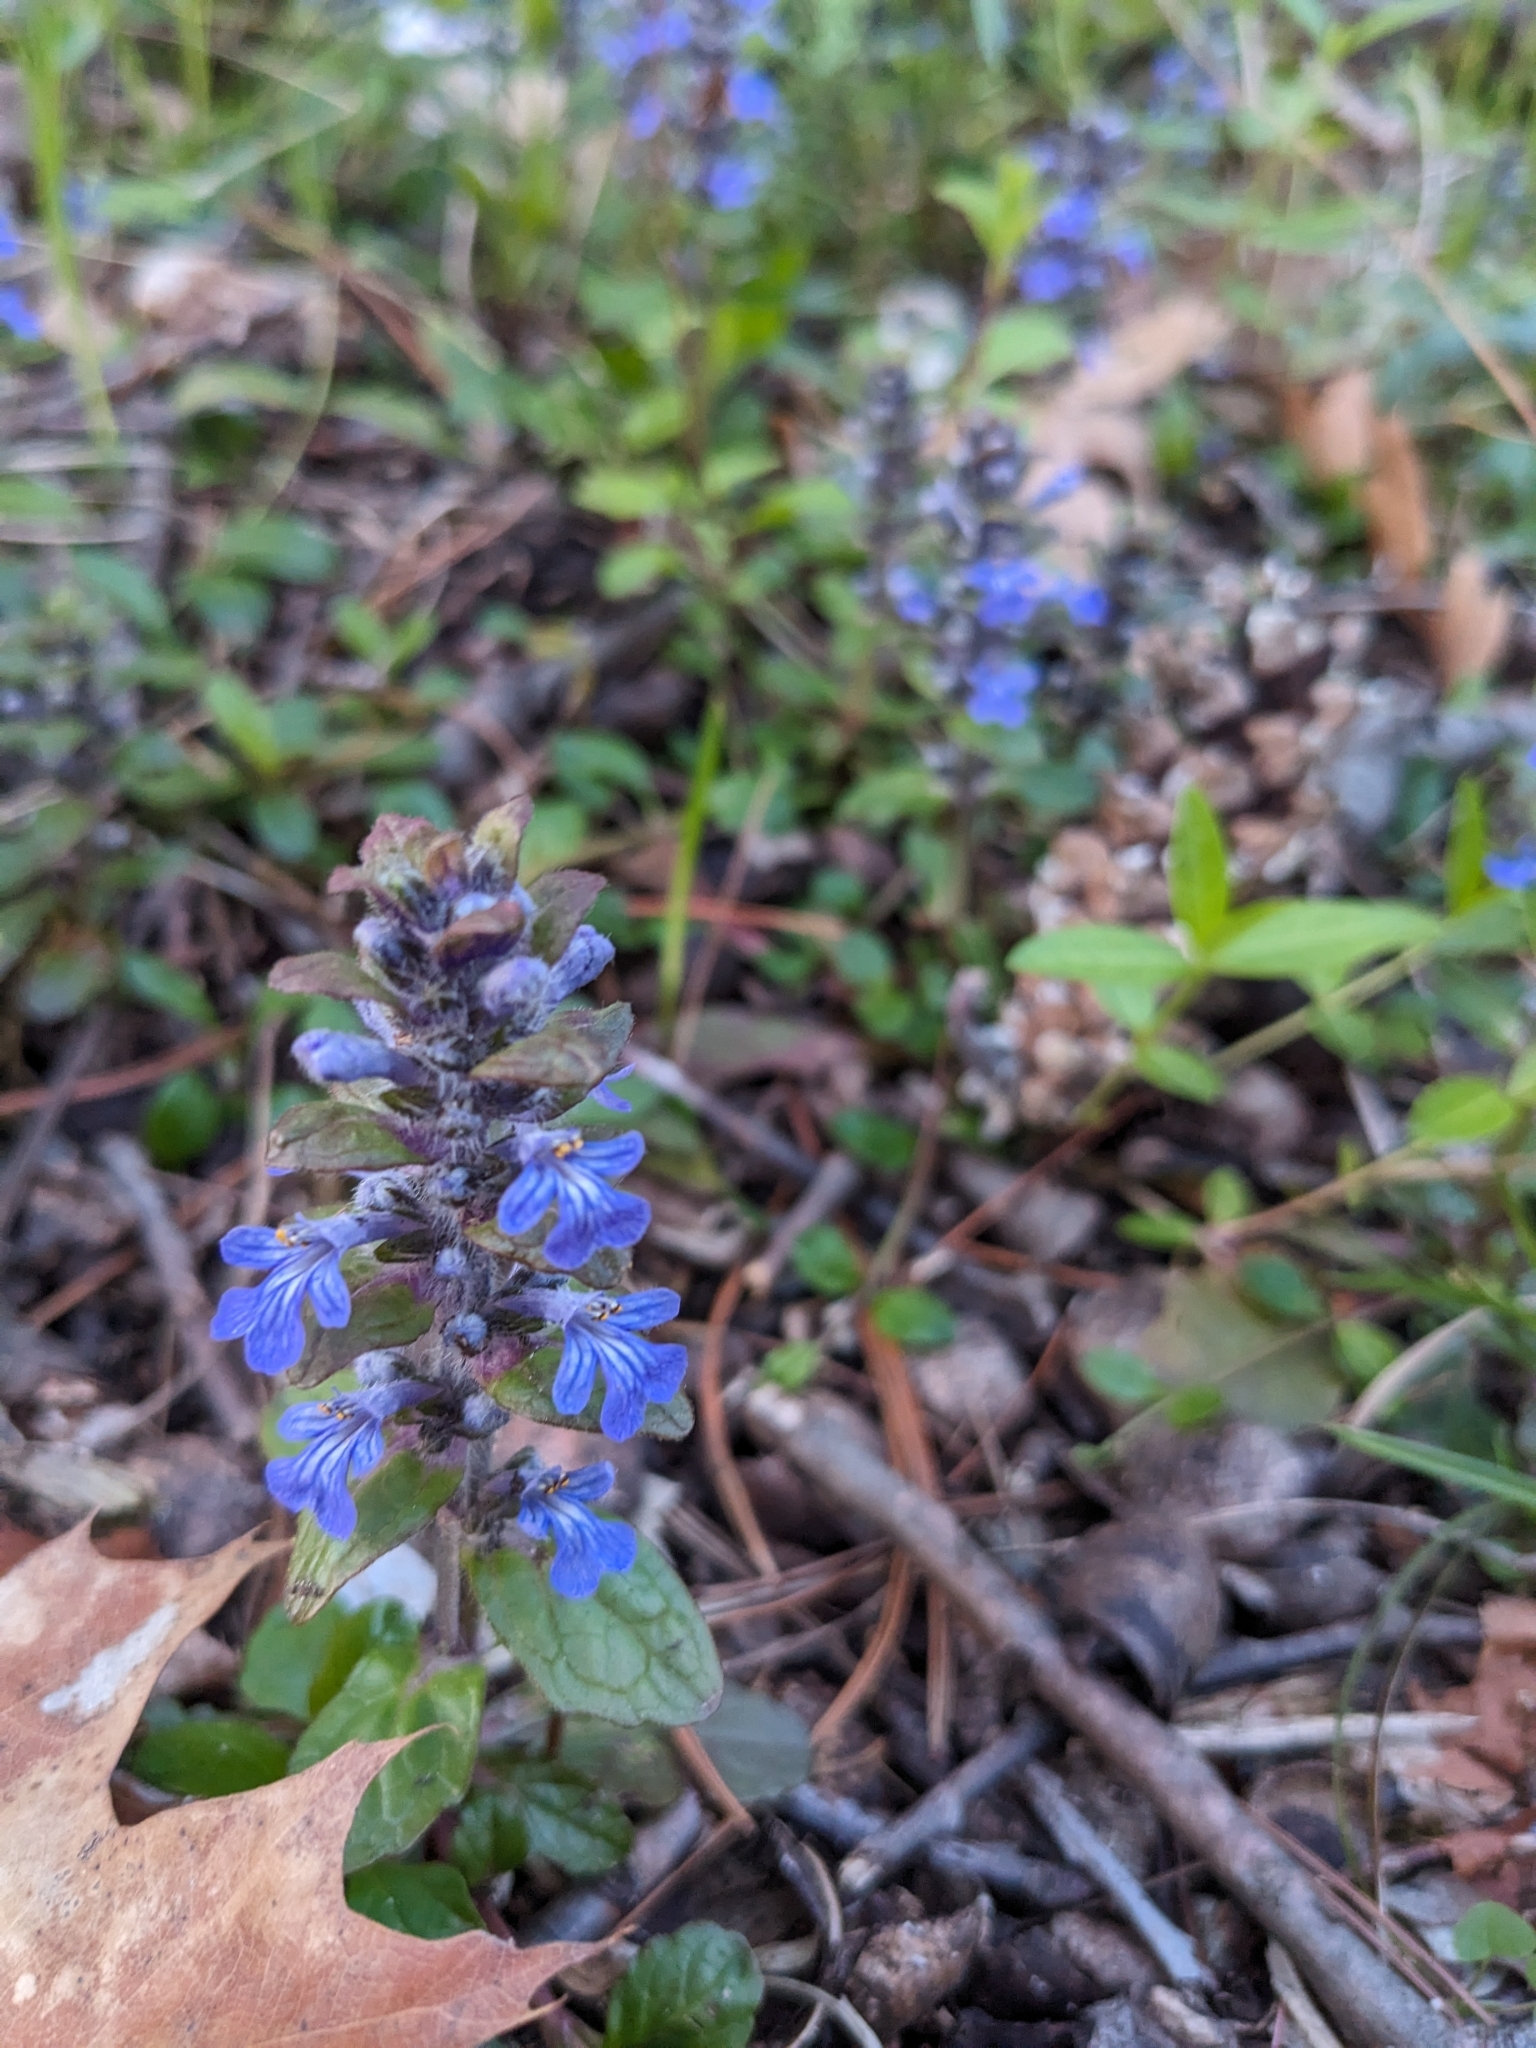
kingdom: Plantae
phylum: Tracheophyta
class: Magnoliopsida
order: Lamiales
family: Lamiaceae
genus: Ajuga
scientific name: Ajuga reptans
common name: Bugle
